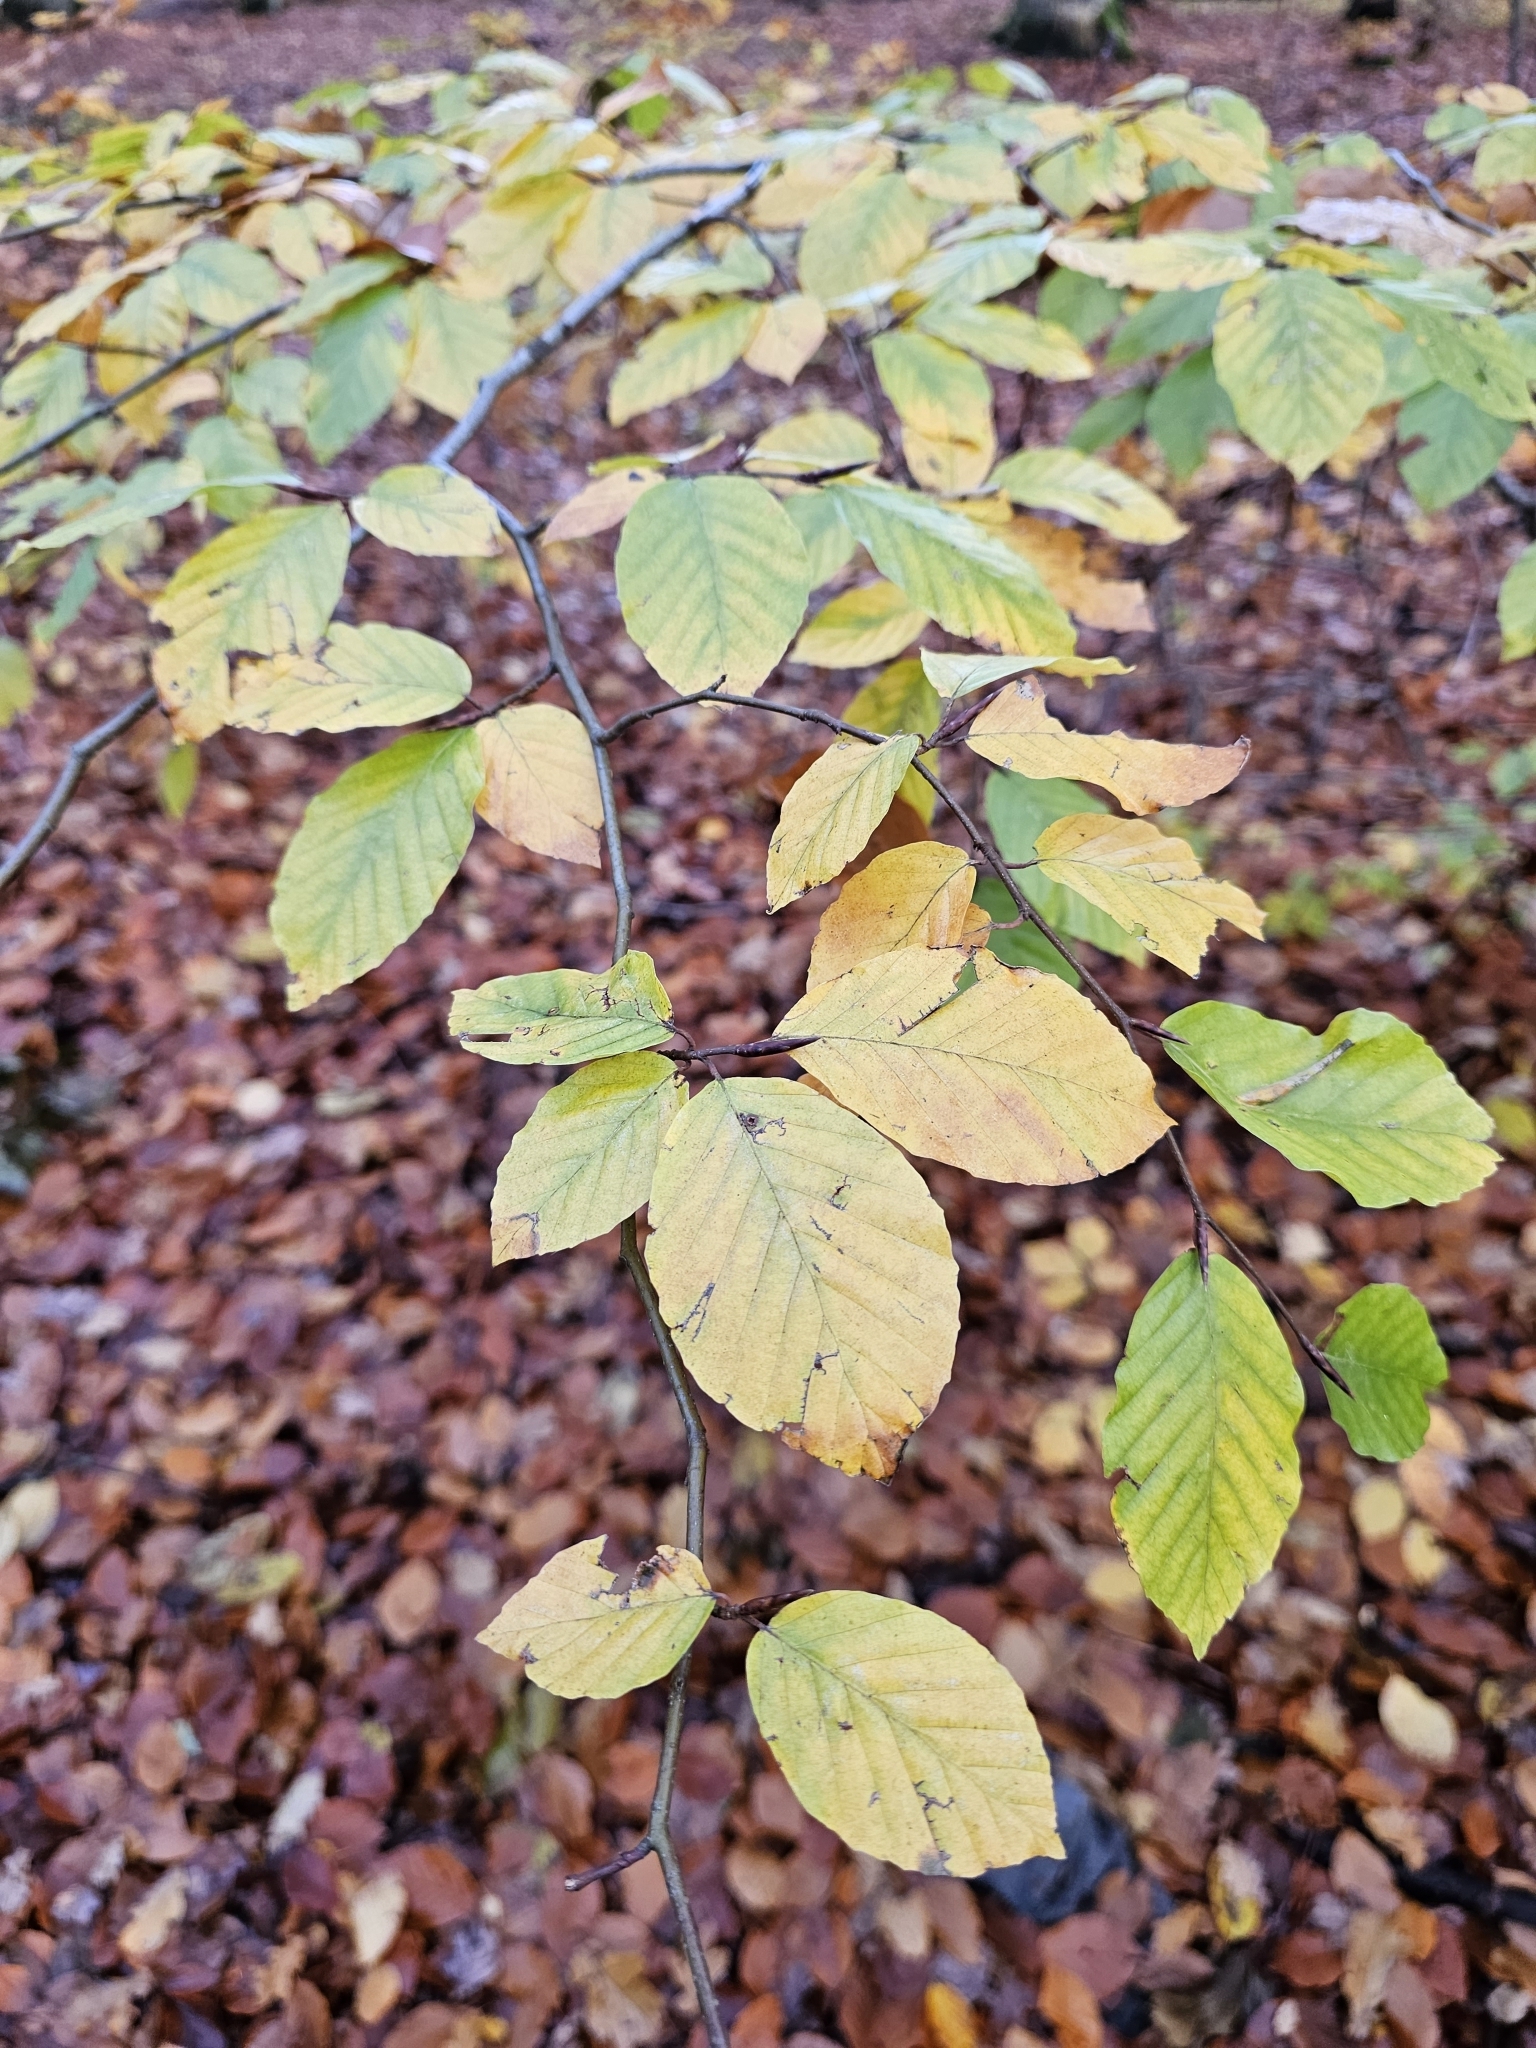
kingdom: Plantae
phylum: Tracheophyta
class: Magnoliopsida
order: Fagales
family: Fagaceae
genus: Fagus
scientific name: Fagus sylvatica
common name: Beech
